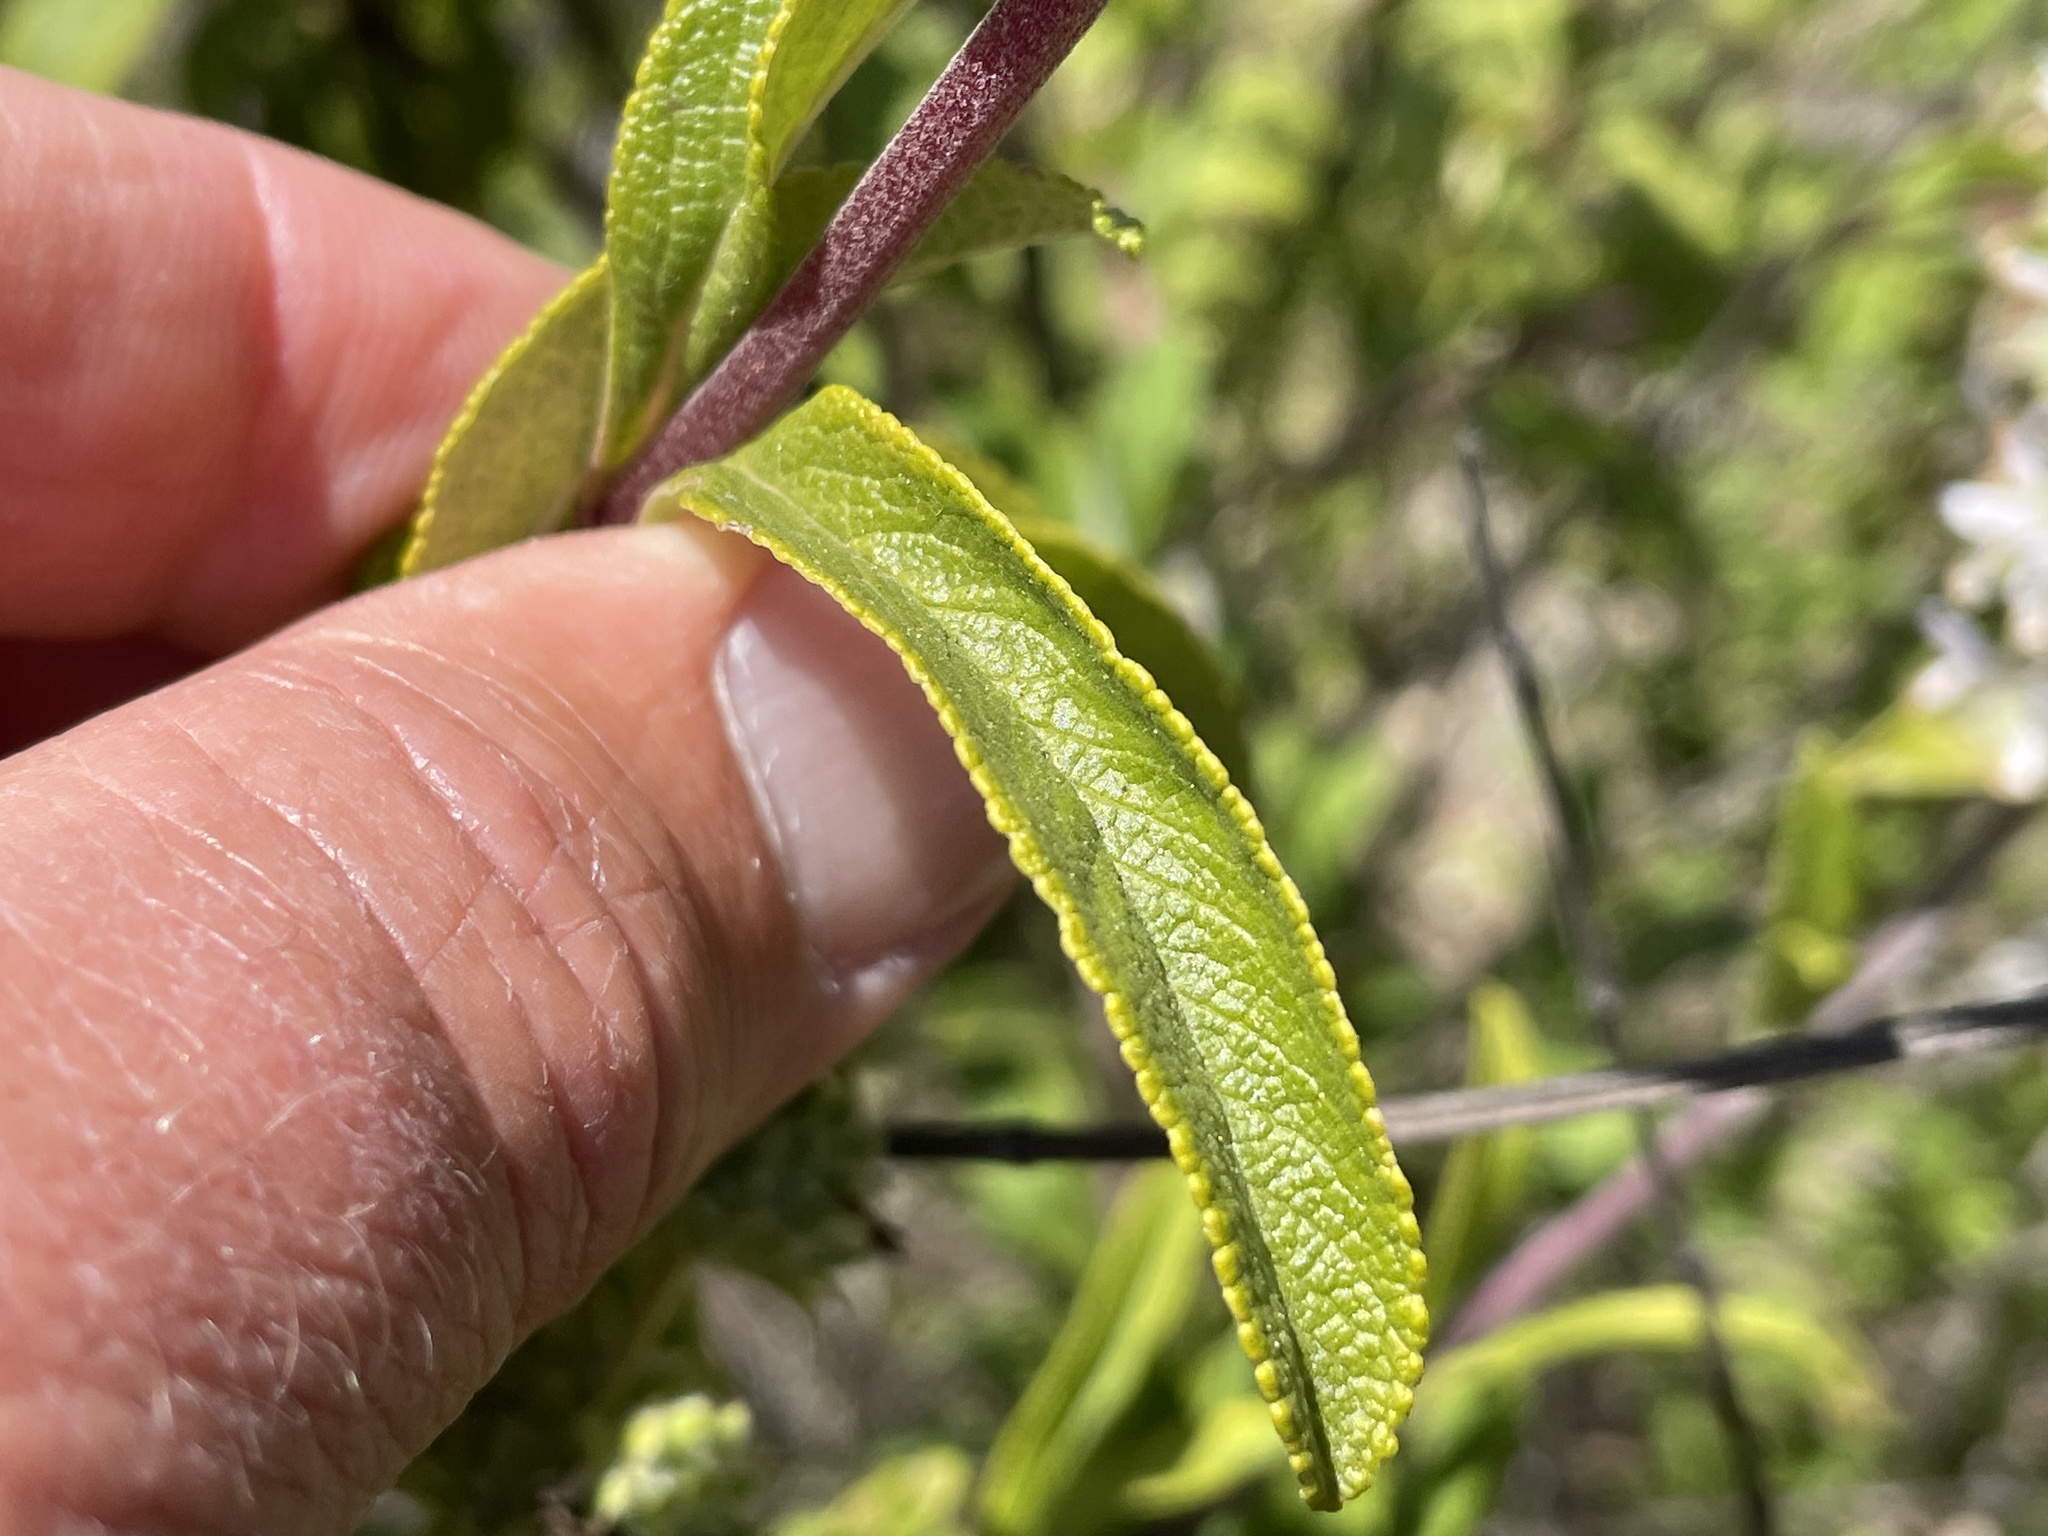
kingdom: Plantae
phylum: Tracheophyta
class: Magnoliopsida
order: Lamiales
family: Lamiaceae
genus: Salvia
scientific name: Salvia mellifera
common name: Black sage
